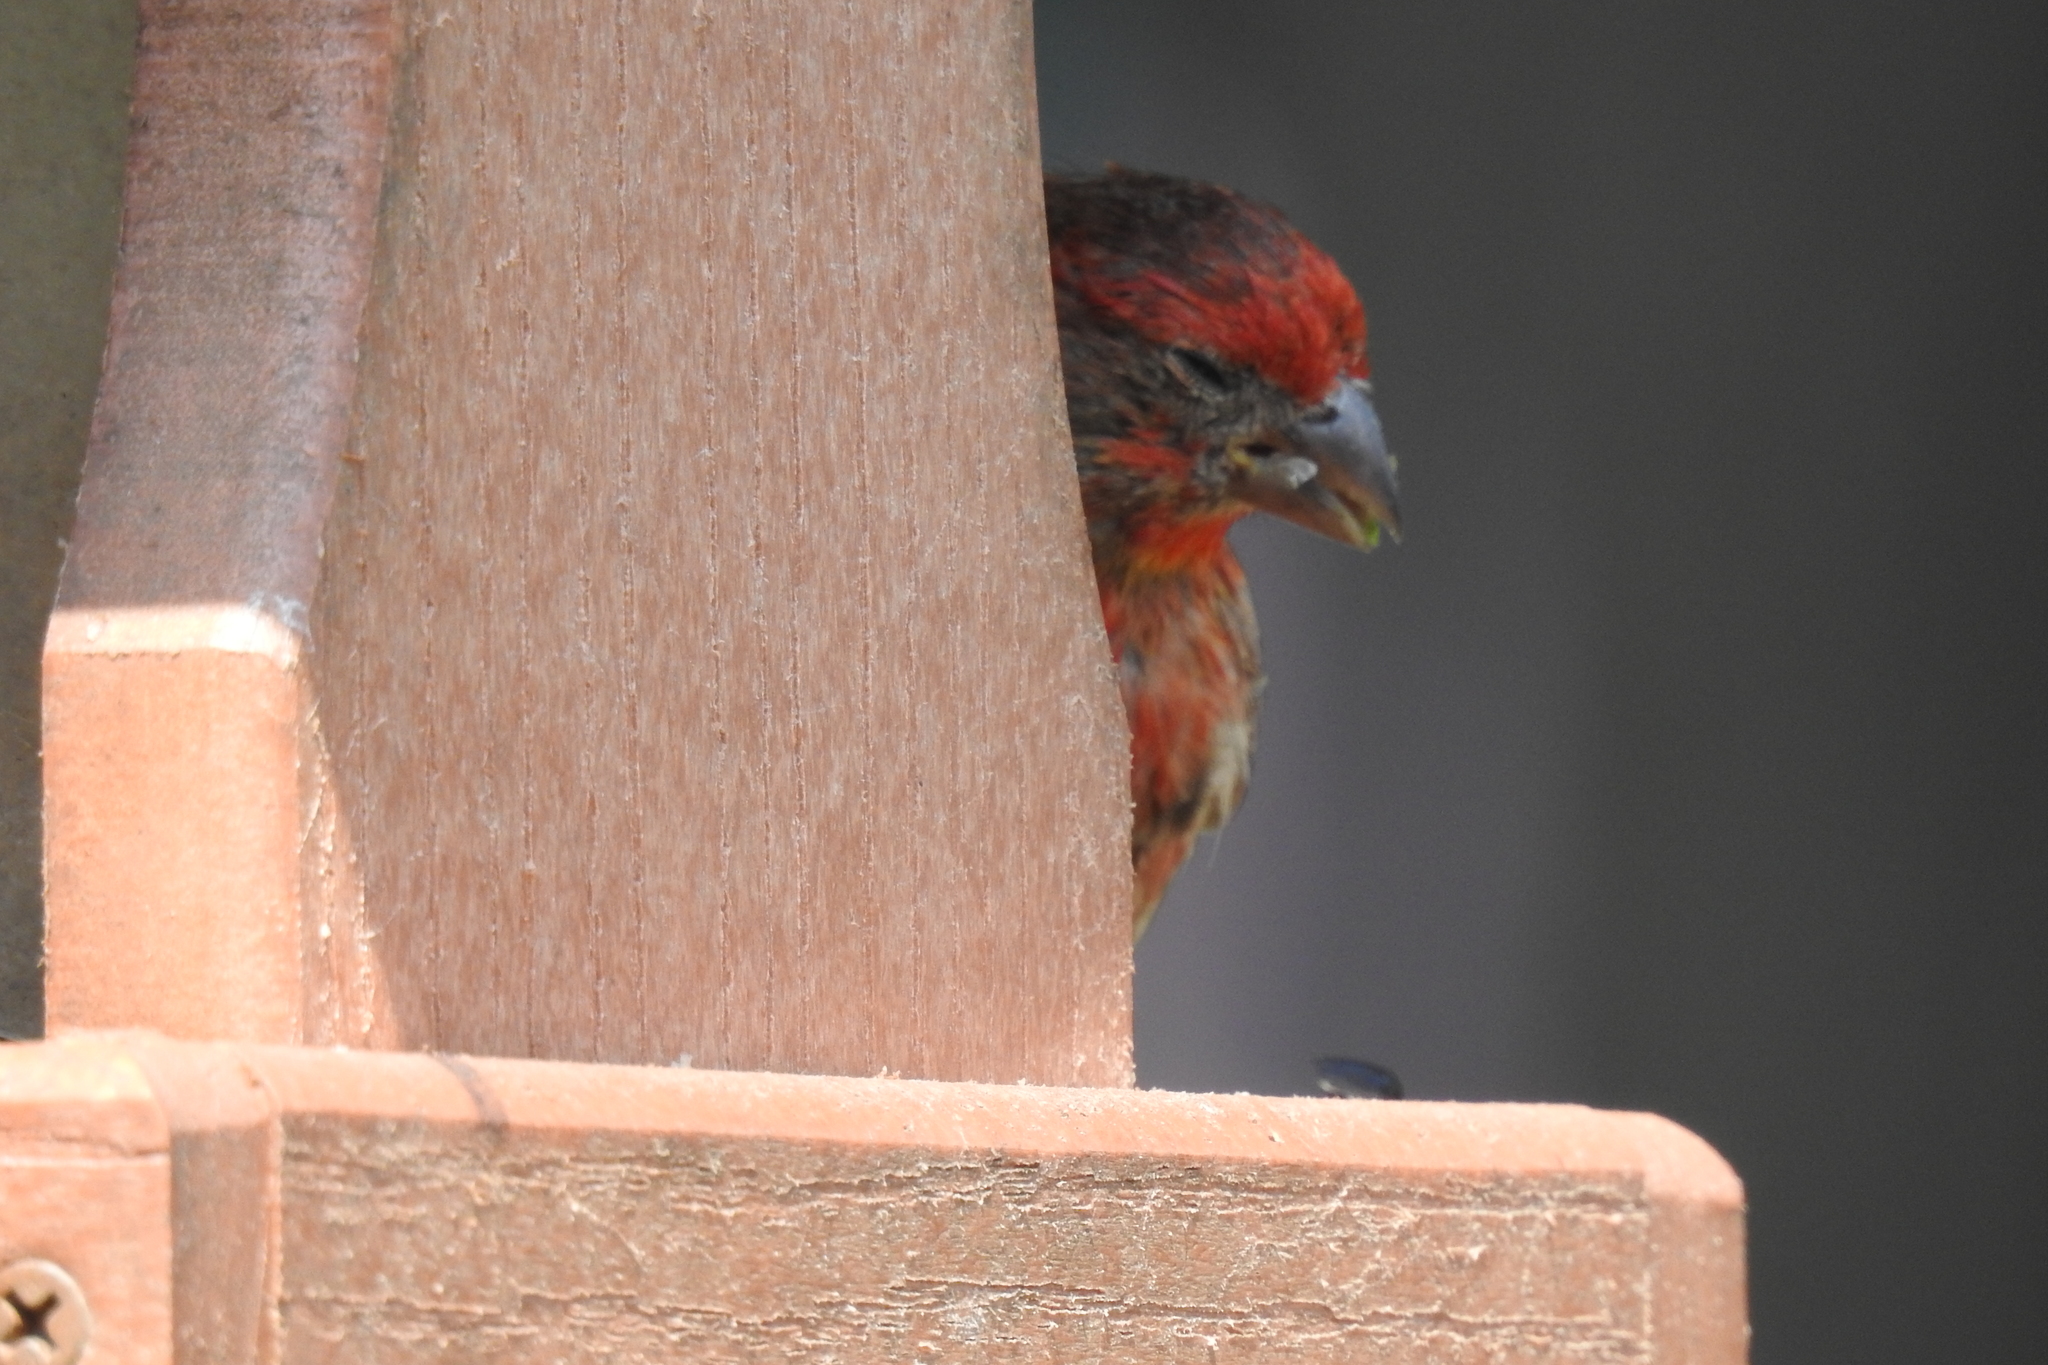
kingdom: Animalia
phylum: Chordata
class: Aves
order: Passeriformes
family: Fringillidae
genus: Haemorhous
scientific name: Haemorhous mexicanus
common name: House finch
